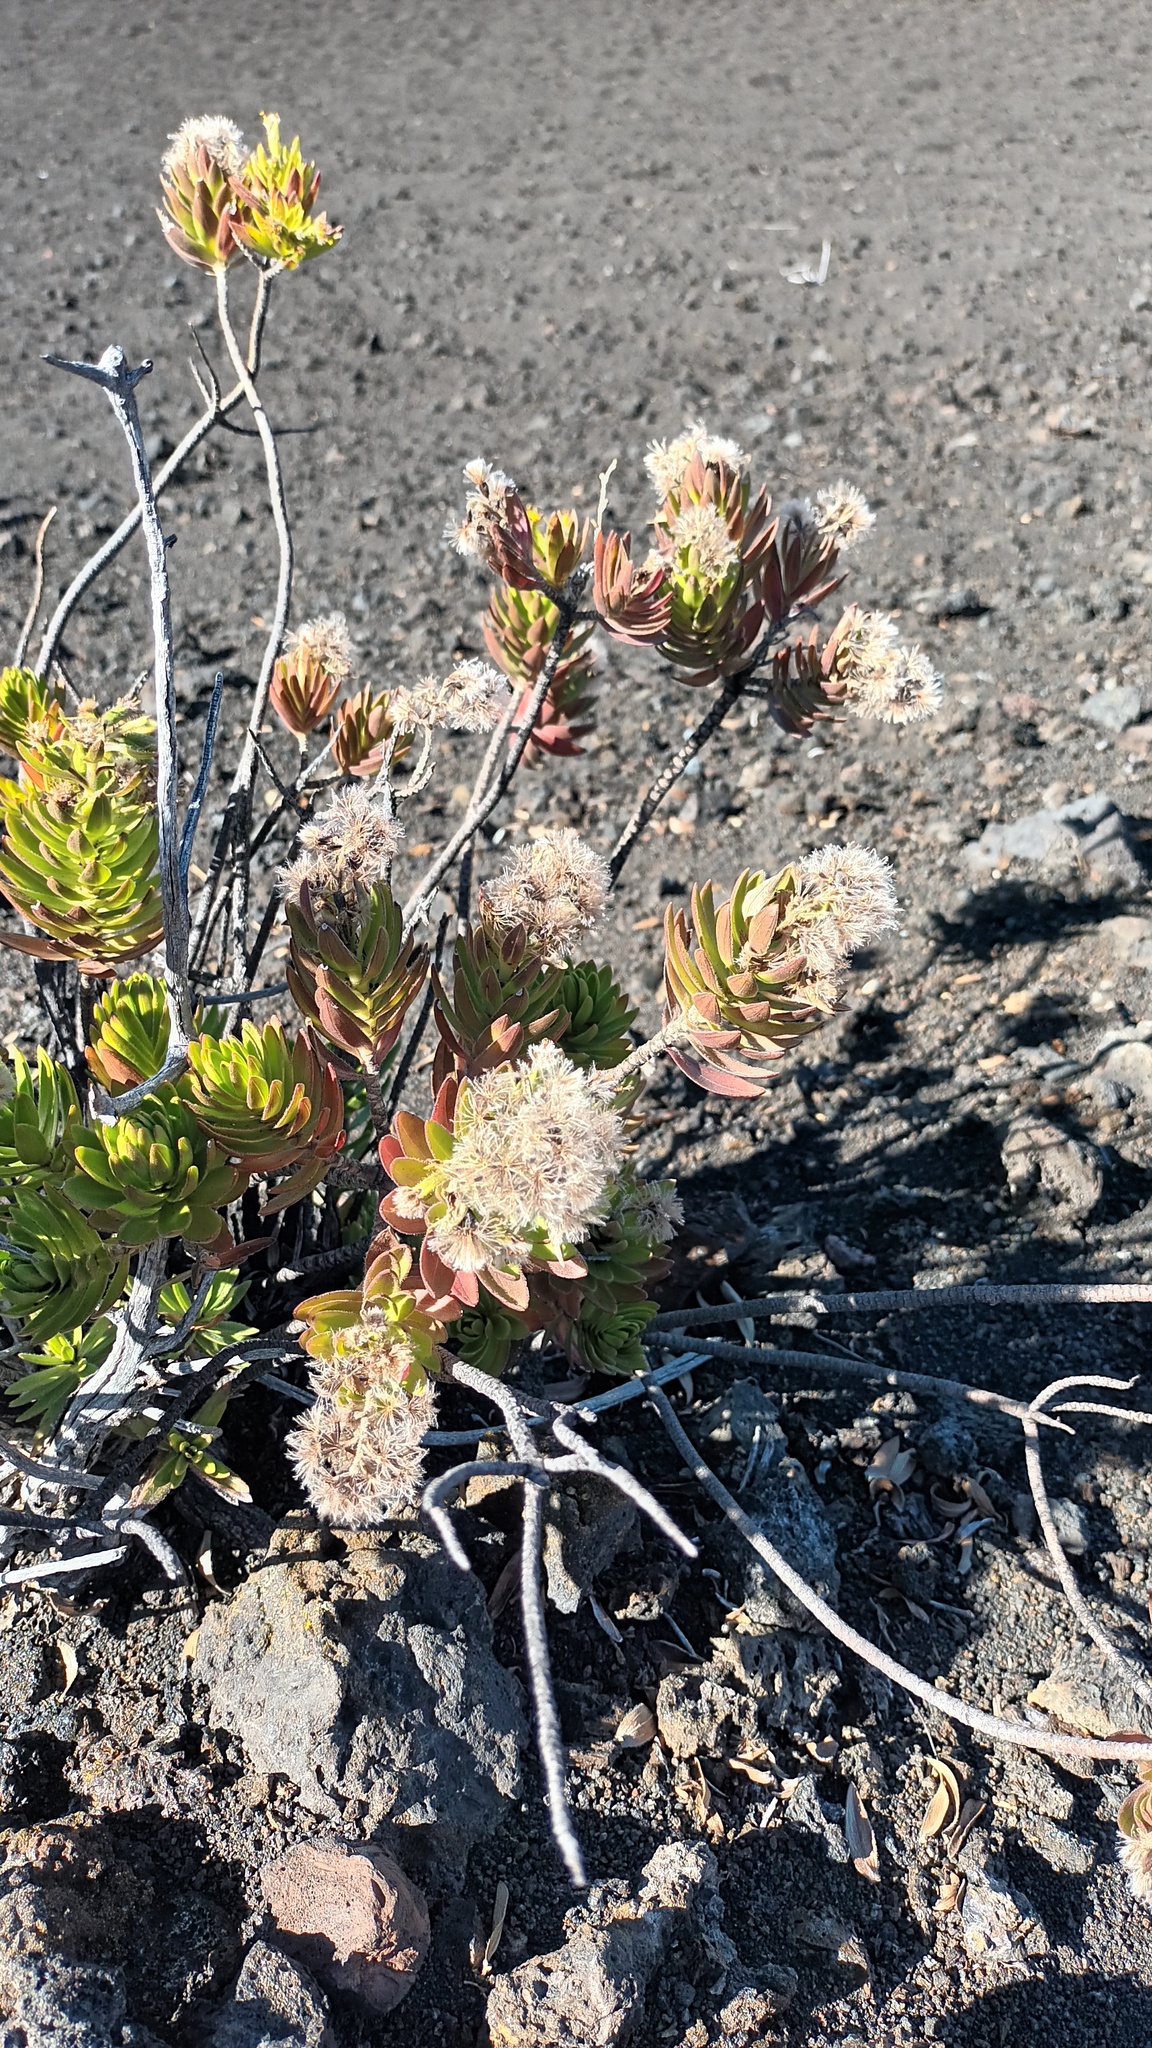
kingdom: Plantae
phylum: Tracheophyta
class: Magnoliopsida
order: Asterales
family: Asteraceae
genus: Dubautia
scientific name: Dubautia menziesii
